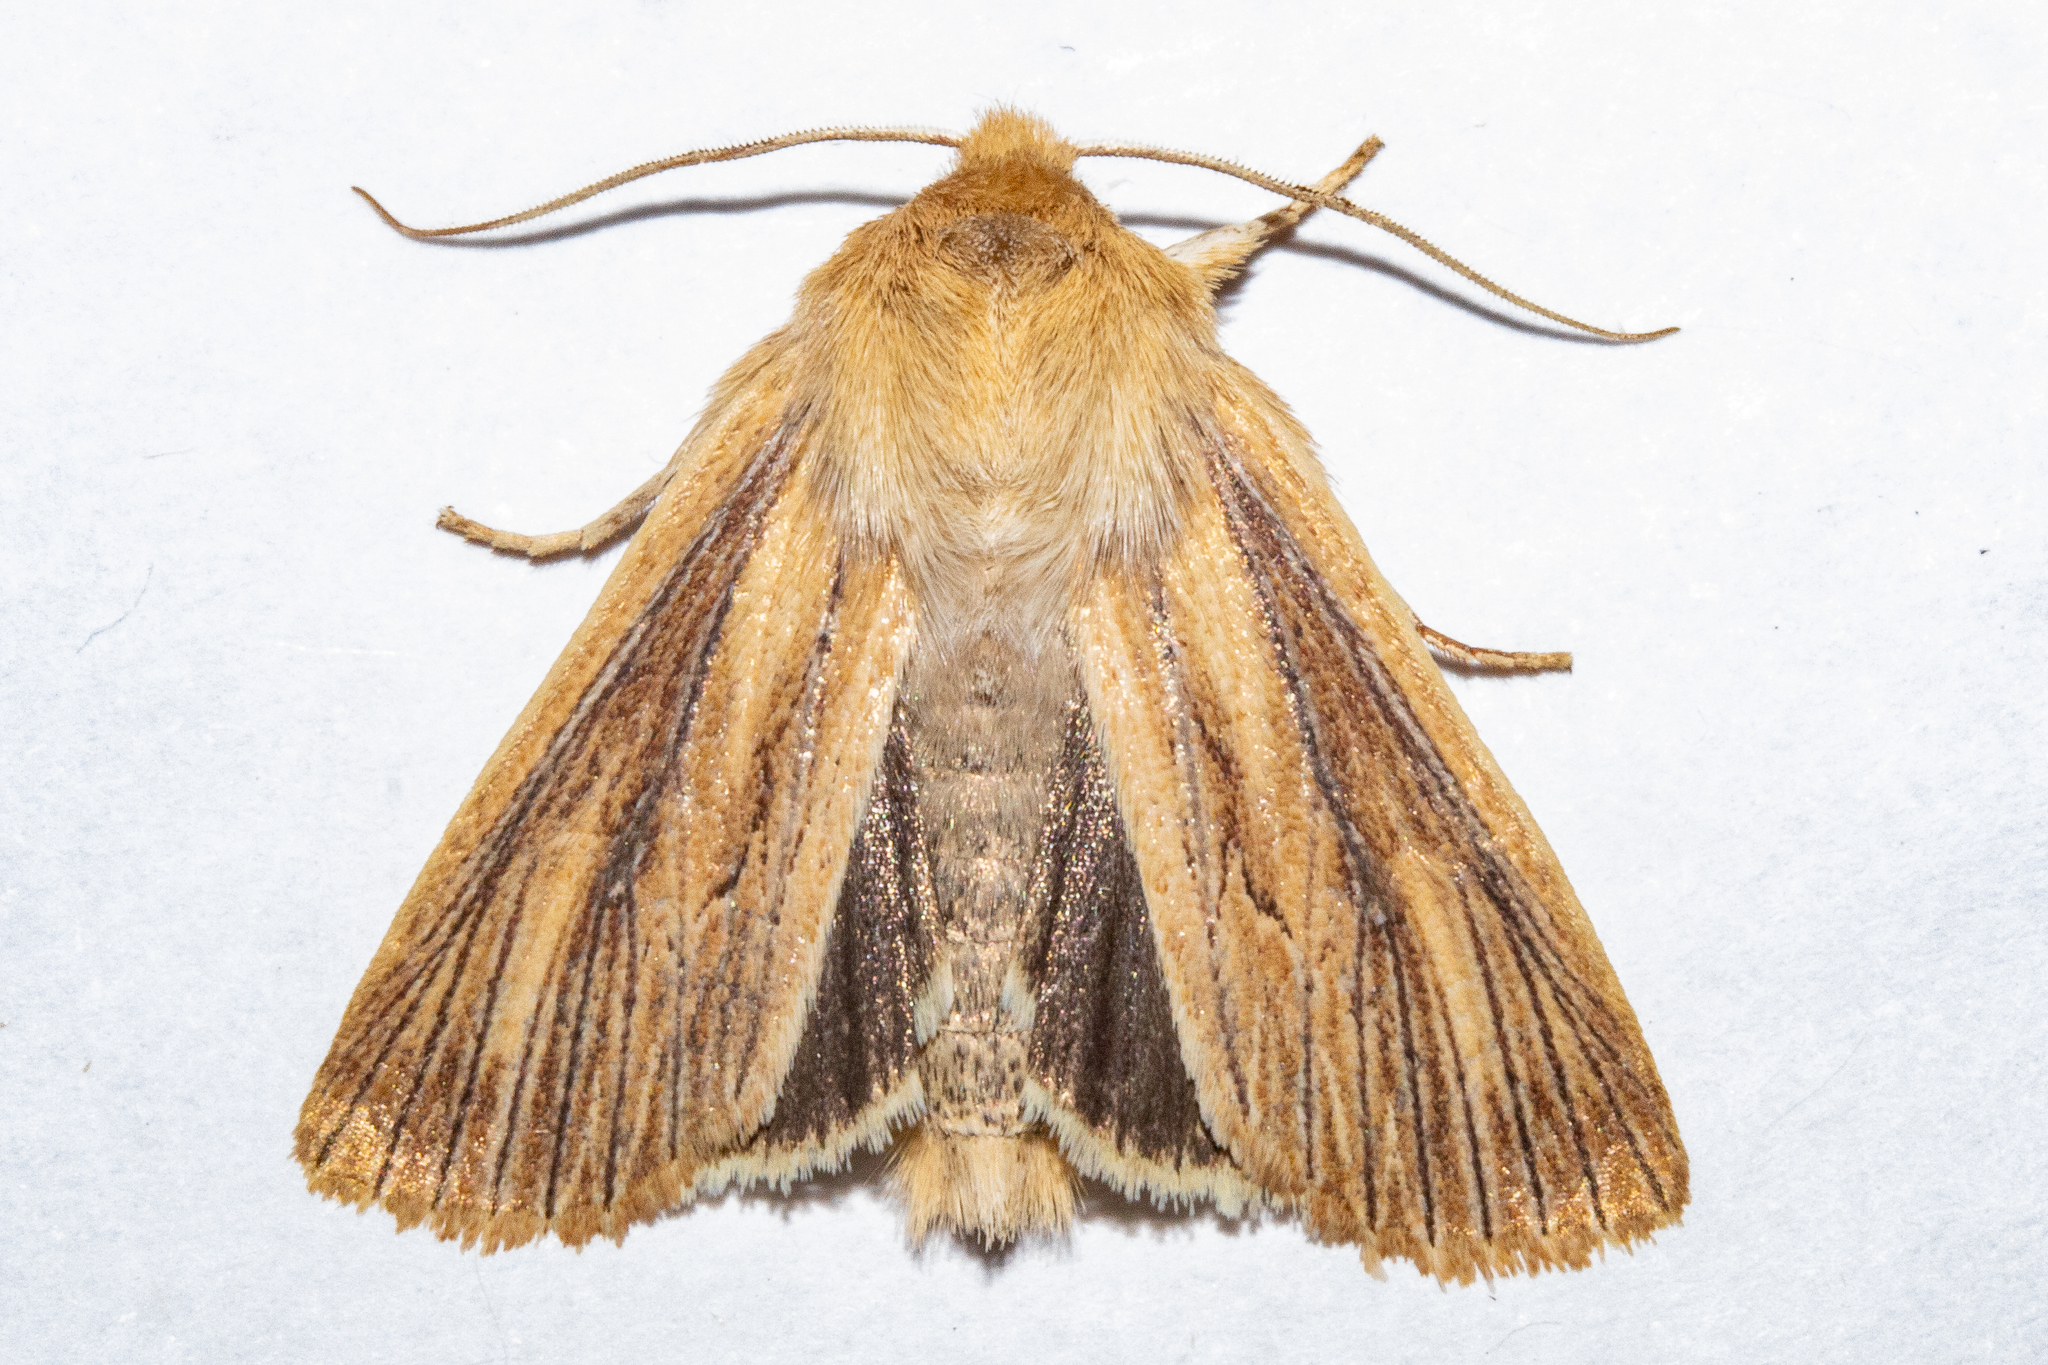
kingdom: Animalia
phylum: Arthropoda
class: Insecta
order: Lepidoptera
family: Noctuidae
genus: Ichneutica
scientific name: Ichneutica arotis
